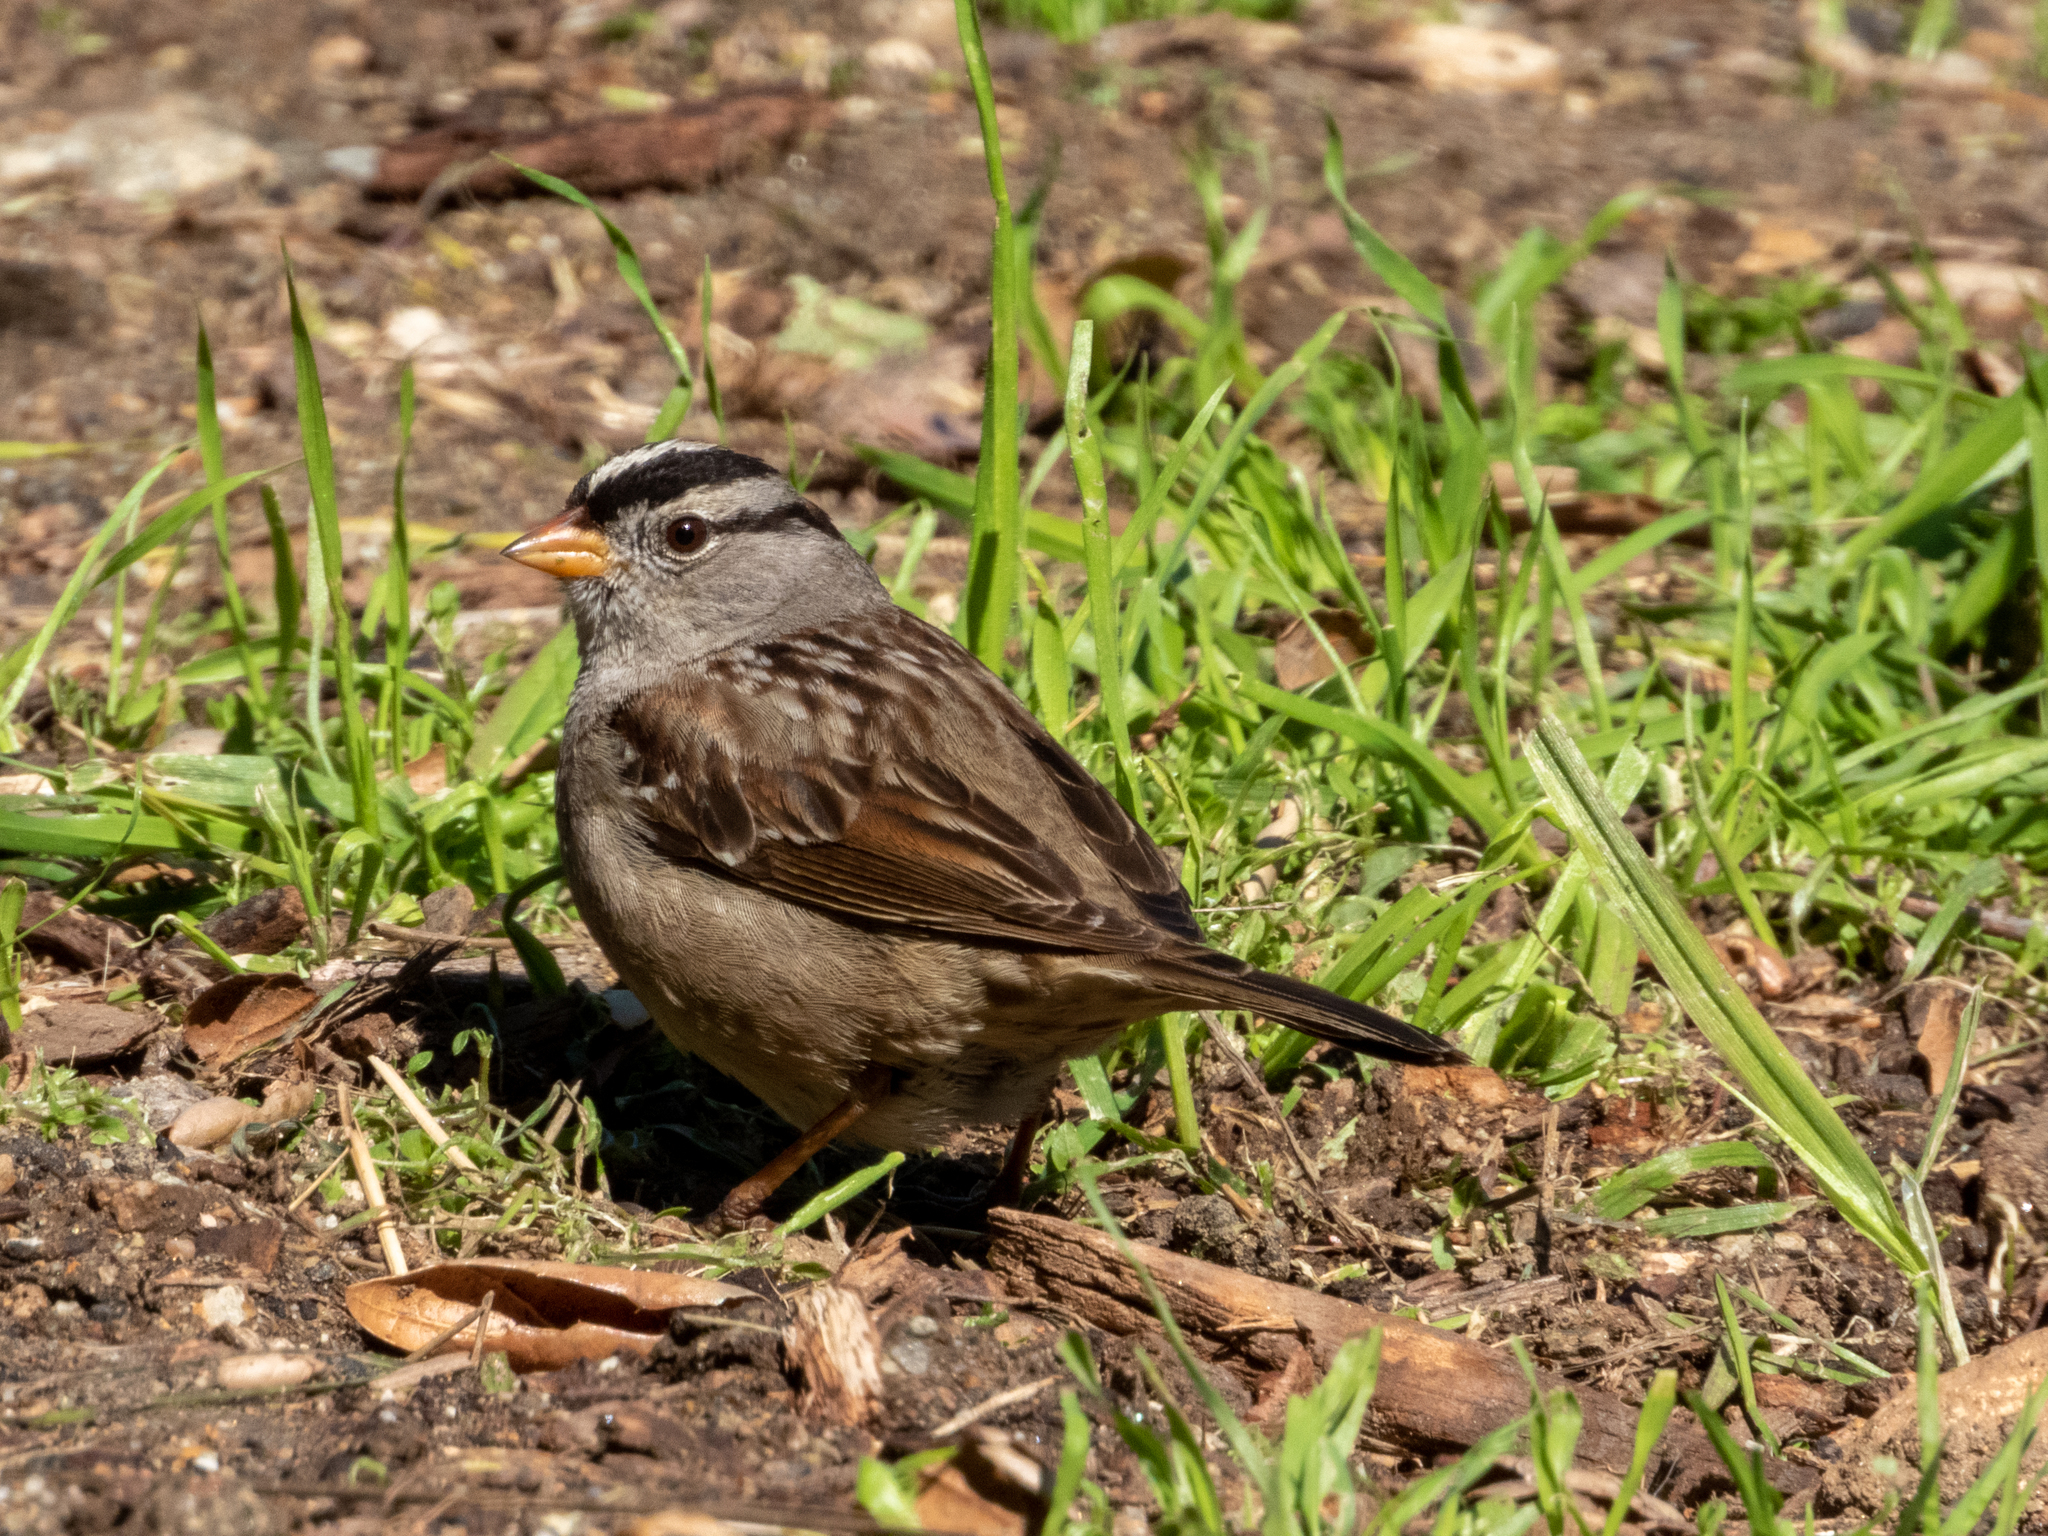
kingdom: Animalia
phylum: Chordata
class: Aves
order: Passeriformes
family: Passerellidae
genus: Zonotrichia
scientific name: Zonotrichia leucophrys
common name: White-crowned sparrow
